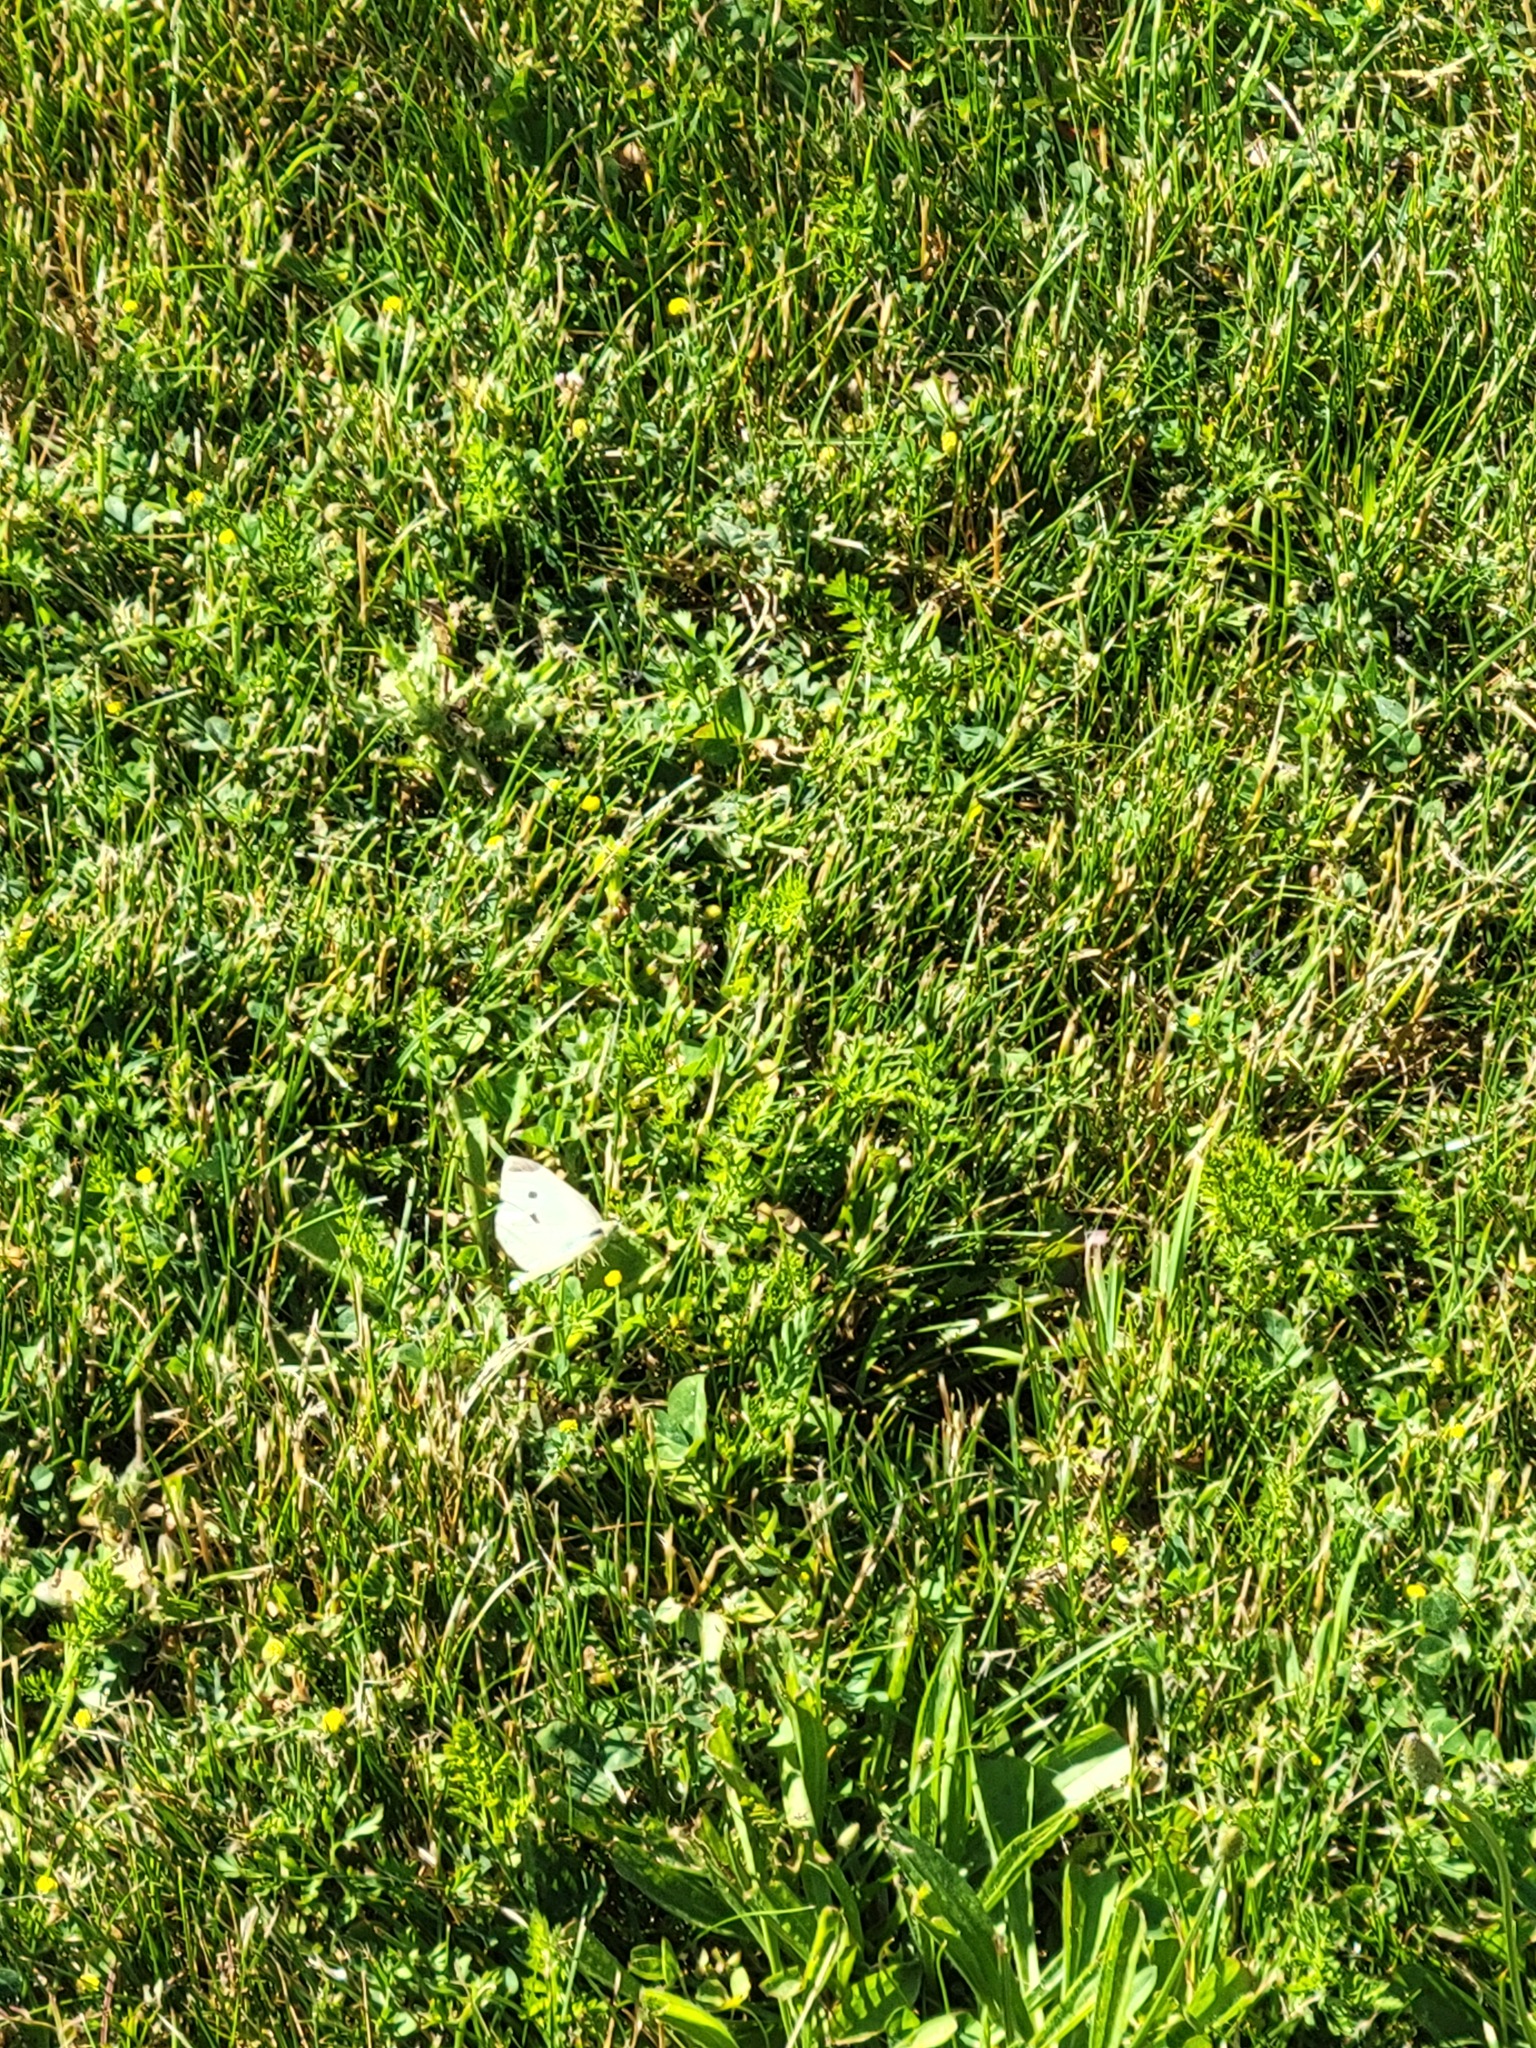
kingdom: Animalia
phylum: Arthropoda
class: Insecta
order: Lepidoptera
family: Pieridae
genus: Pieris
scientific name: Pieris rapae
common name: Small white
